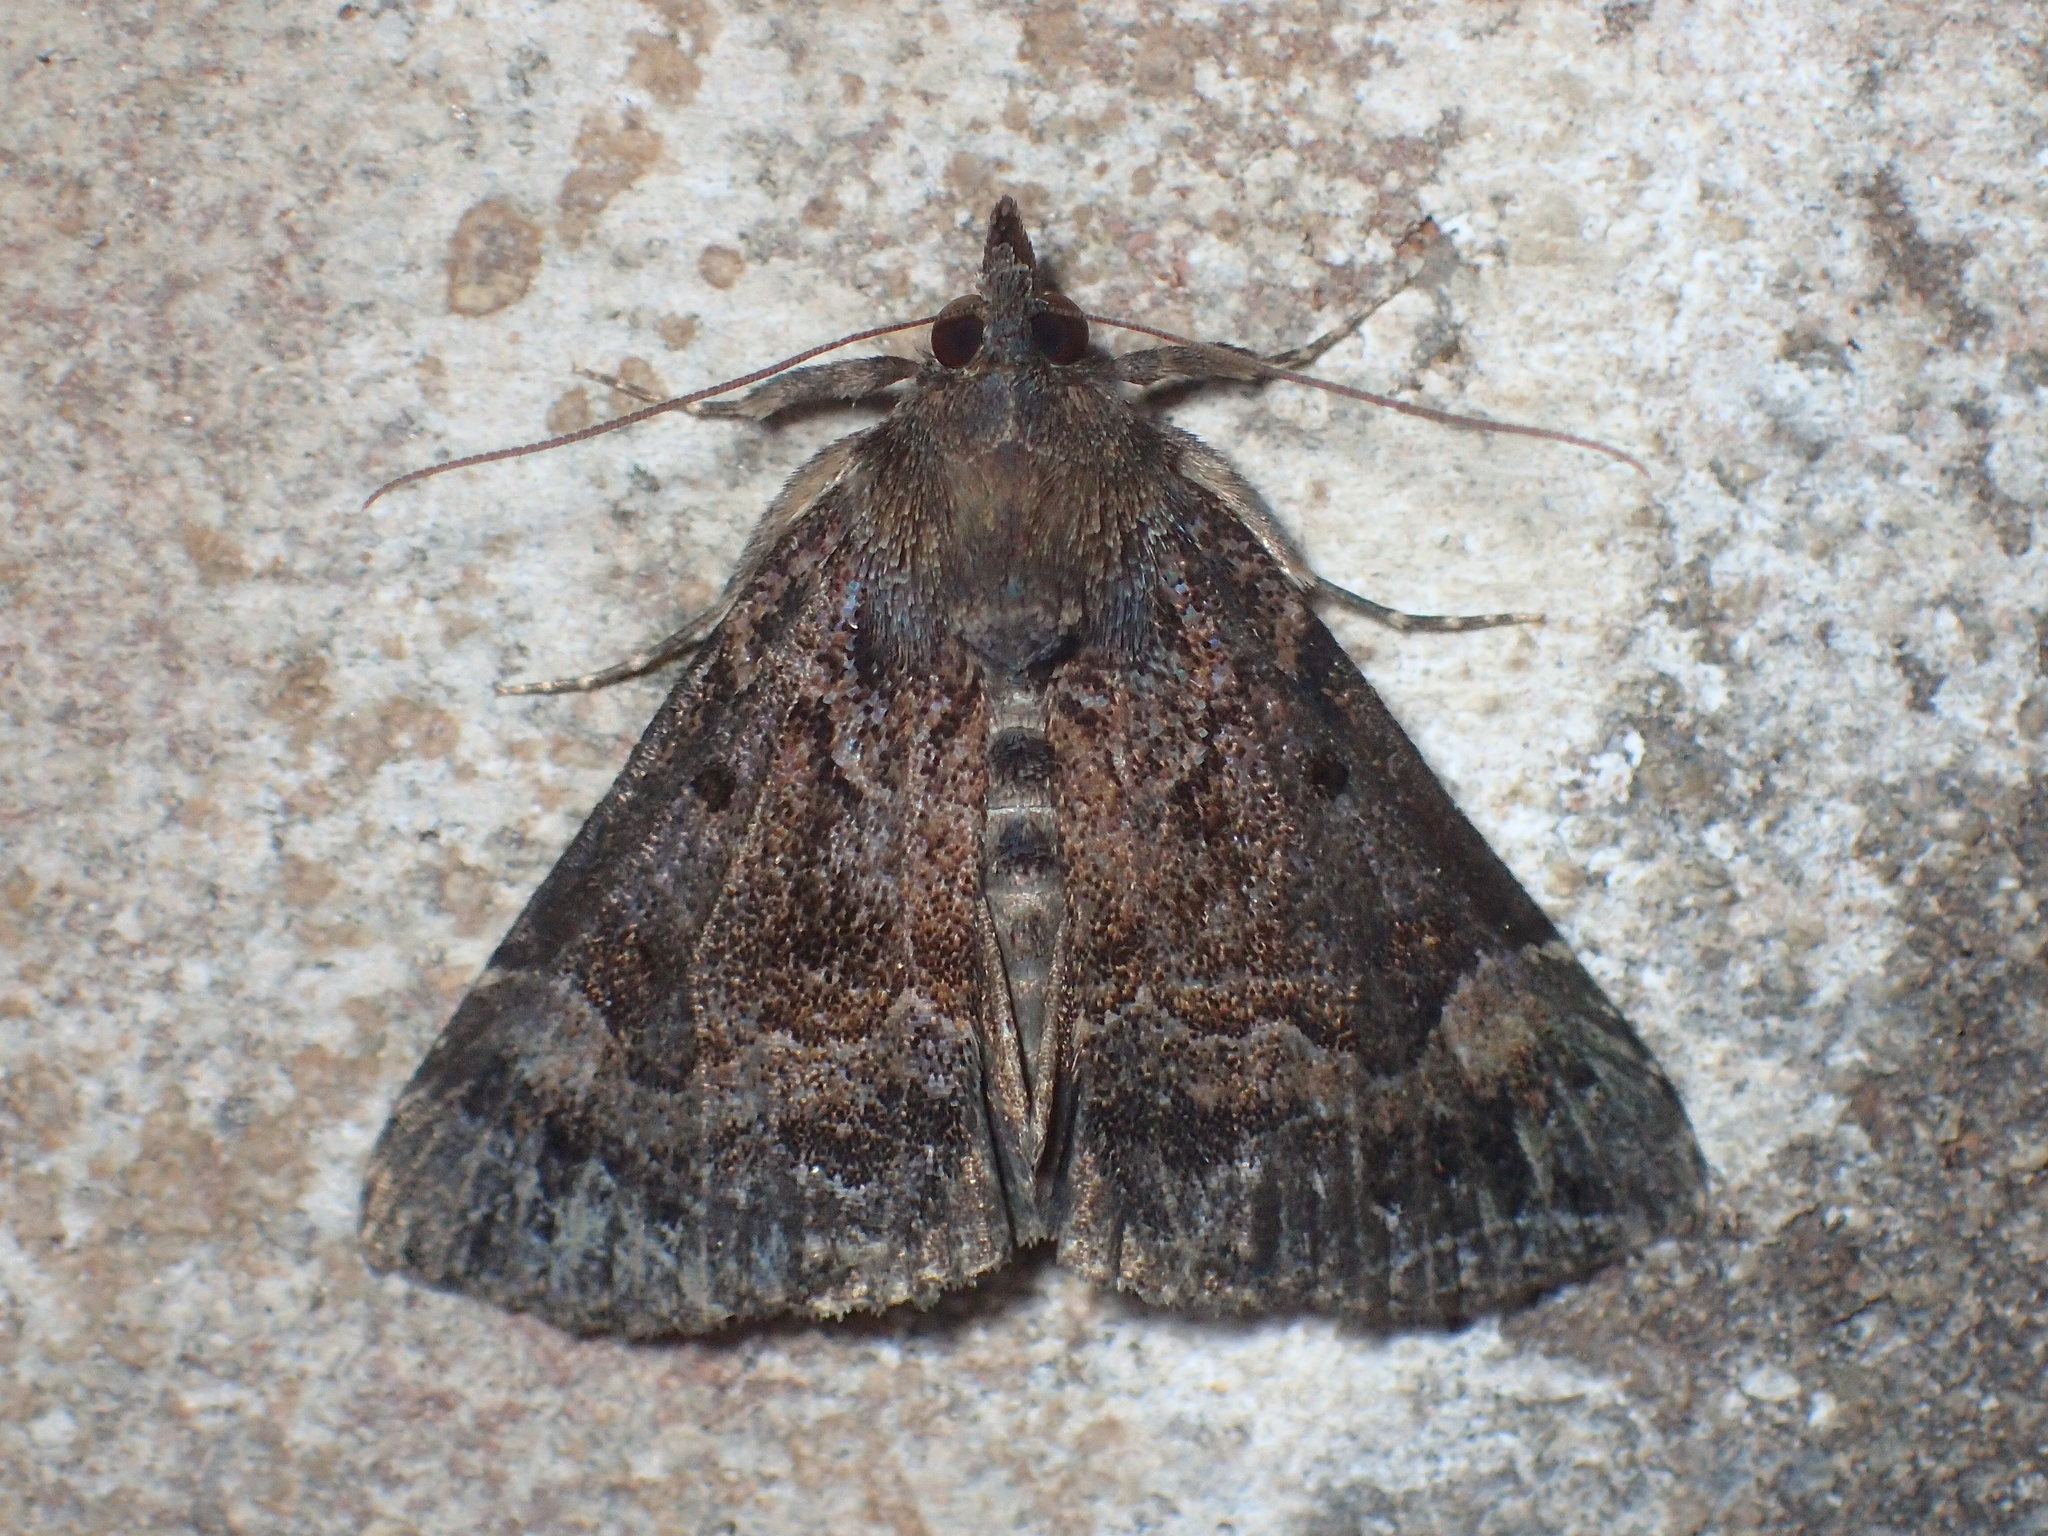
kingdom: Animalia
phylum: Arthropoda
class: Insecta
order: Lepidoptera
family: Erebidae
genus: Hypena
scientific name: Hypena palparia
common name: Mottled bomolocha moth
